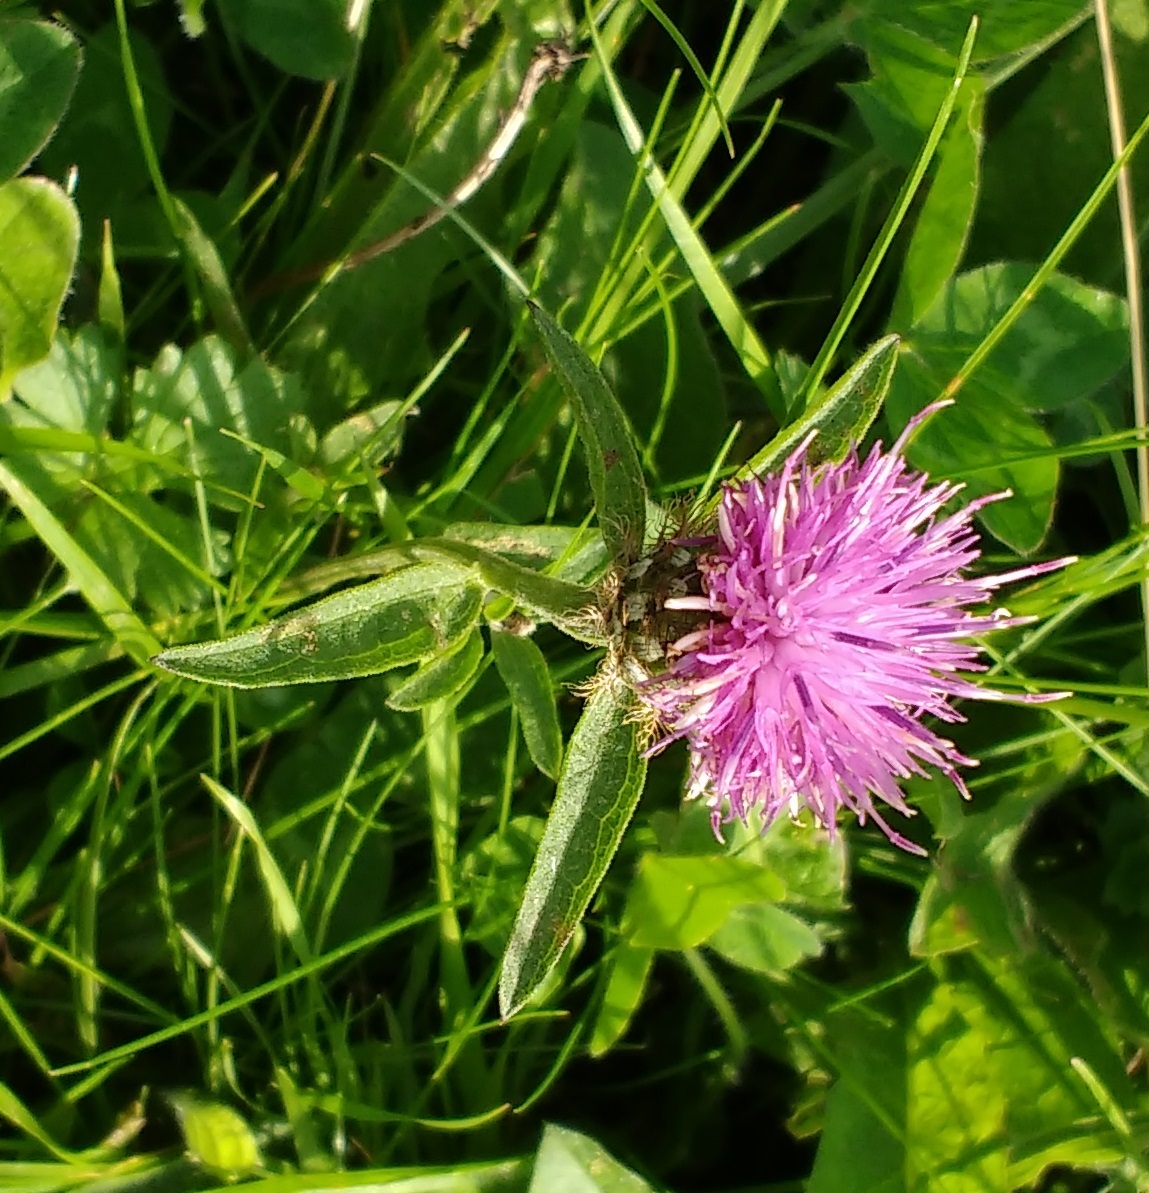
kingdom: Plantae
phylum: Tracheophyta
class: Magnoliopsida
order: Asterales
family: Asteraceae
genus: Centaurea
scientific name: Centaurea nigra
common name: Lesser knapweed
